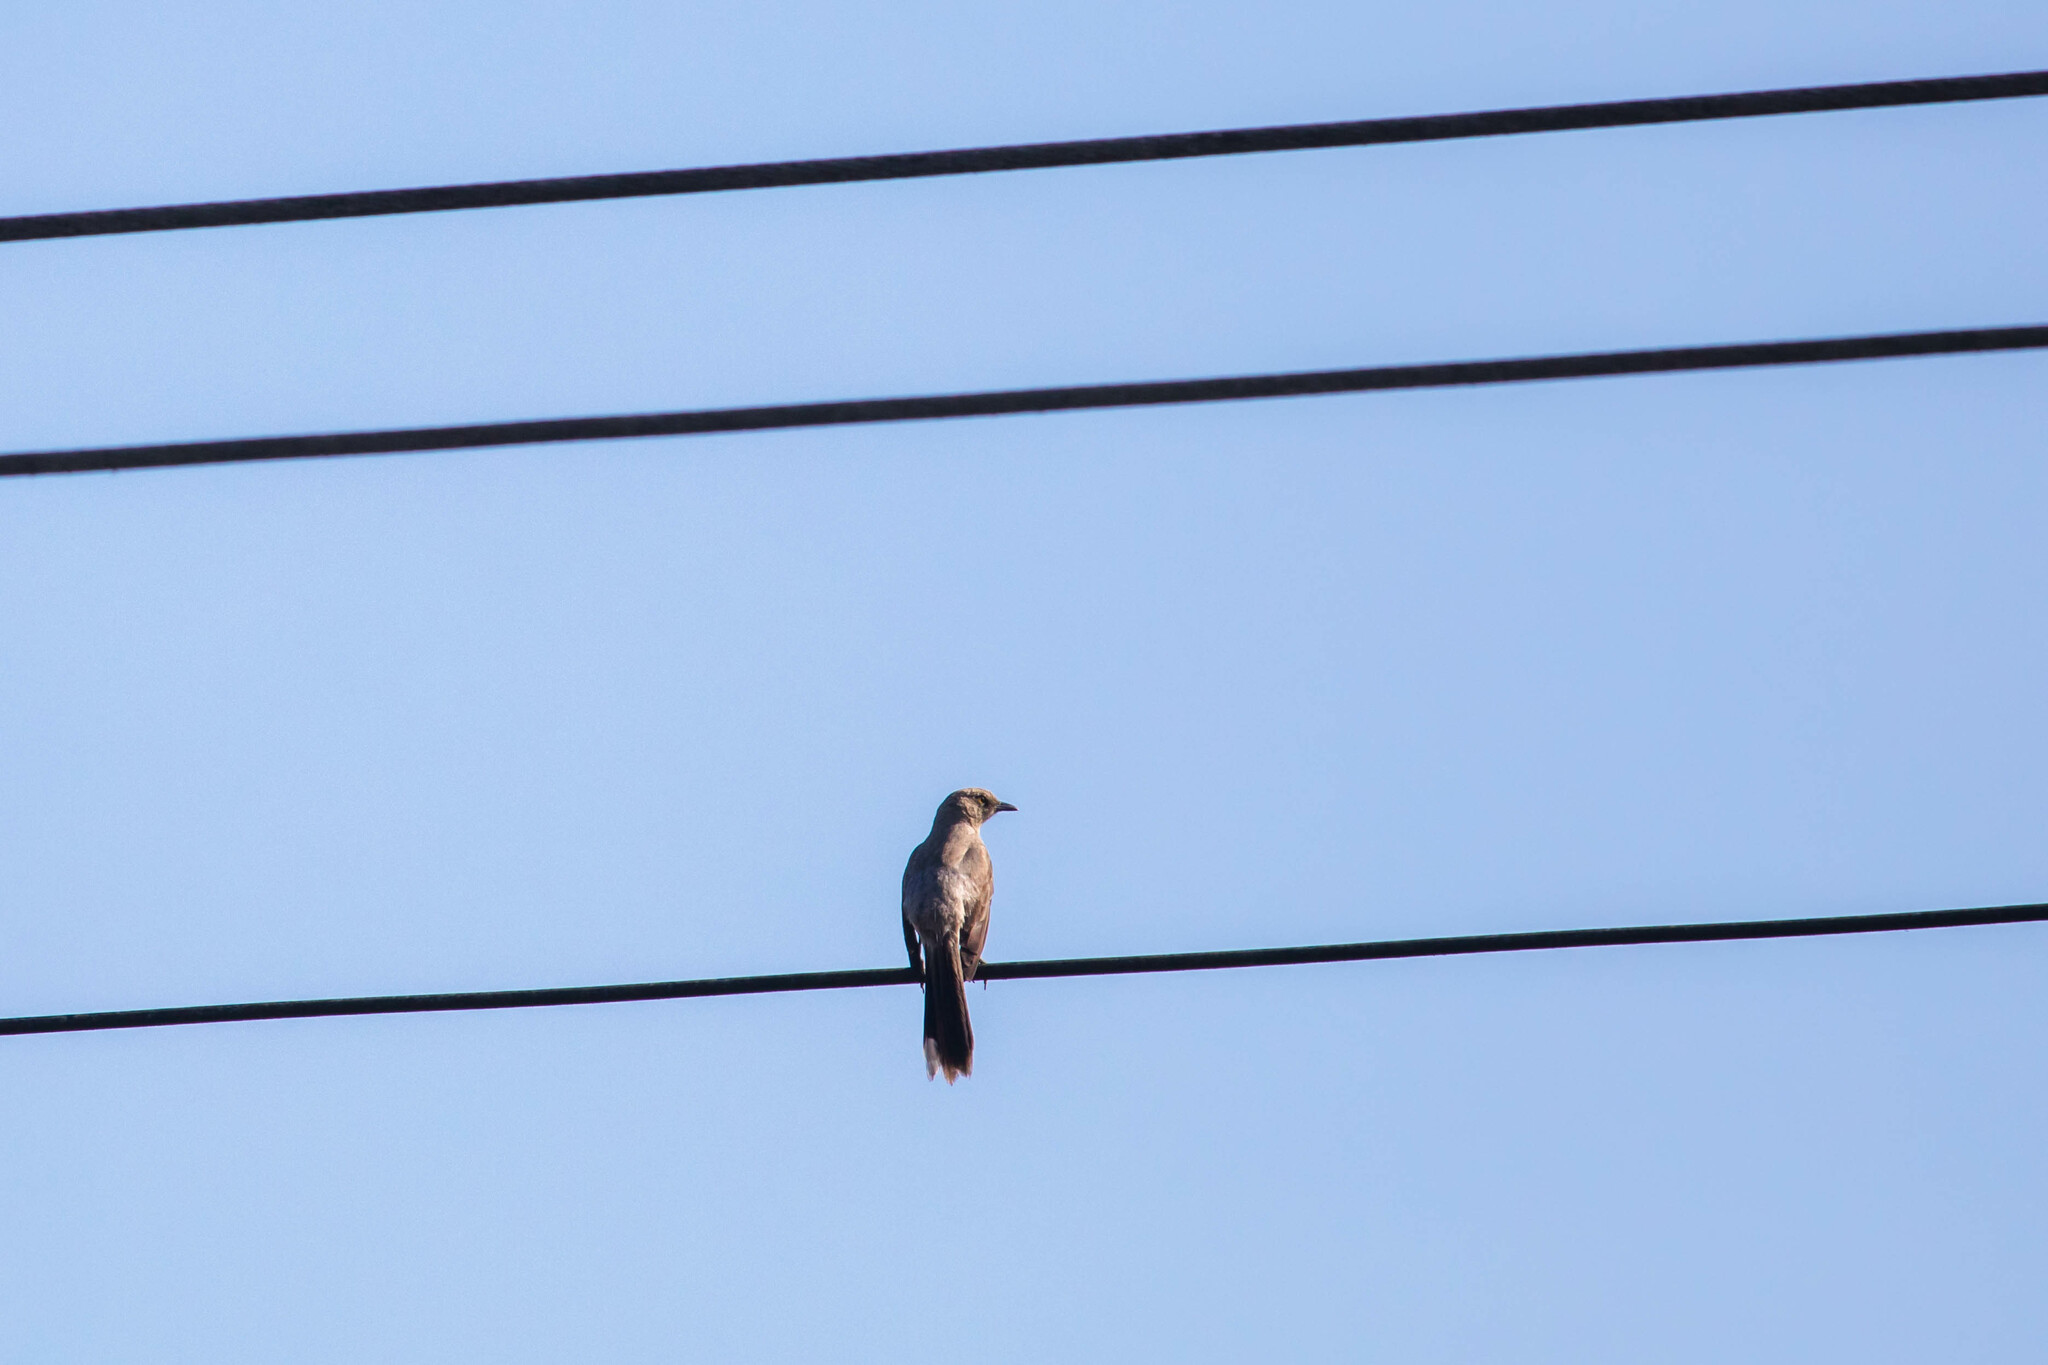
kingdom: Animalia
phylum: Chordata
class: Aves
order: Passeriformes
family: Mimidae
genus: Mimus
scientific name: Mimus gilvus
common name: Tropical mockingbird
